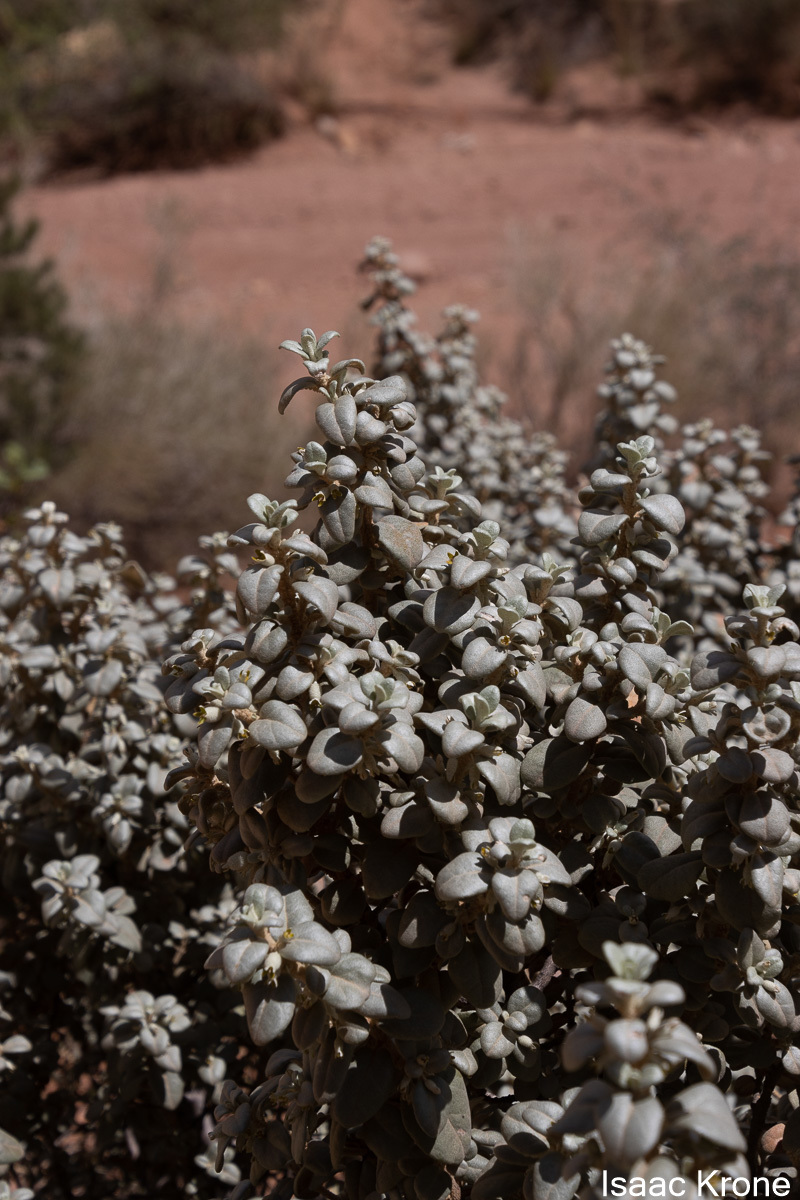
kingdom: Plantae
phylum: Tracheophyta
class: Magnoliopsida
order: Rosales
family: Elaeagnaceae
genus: Shepherdia
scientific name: Shepherdia rotundifolia
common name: Silverscale
